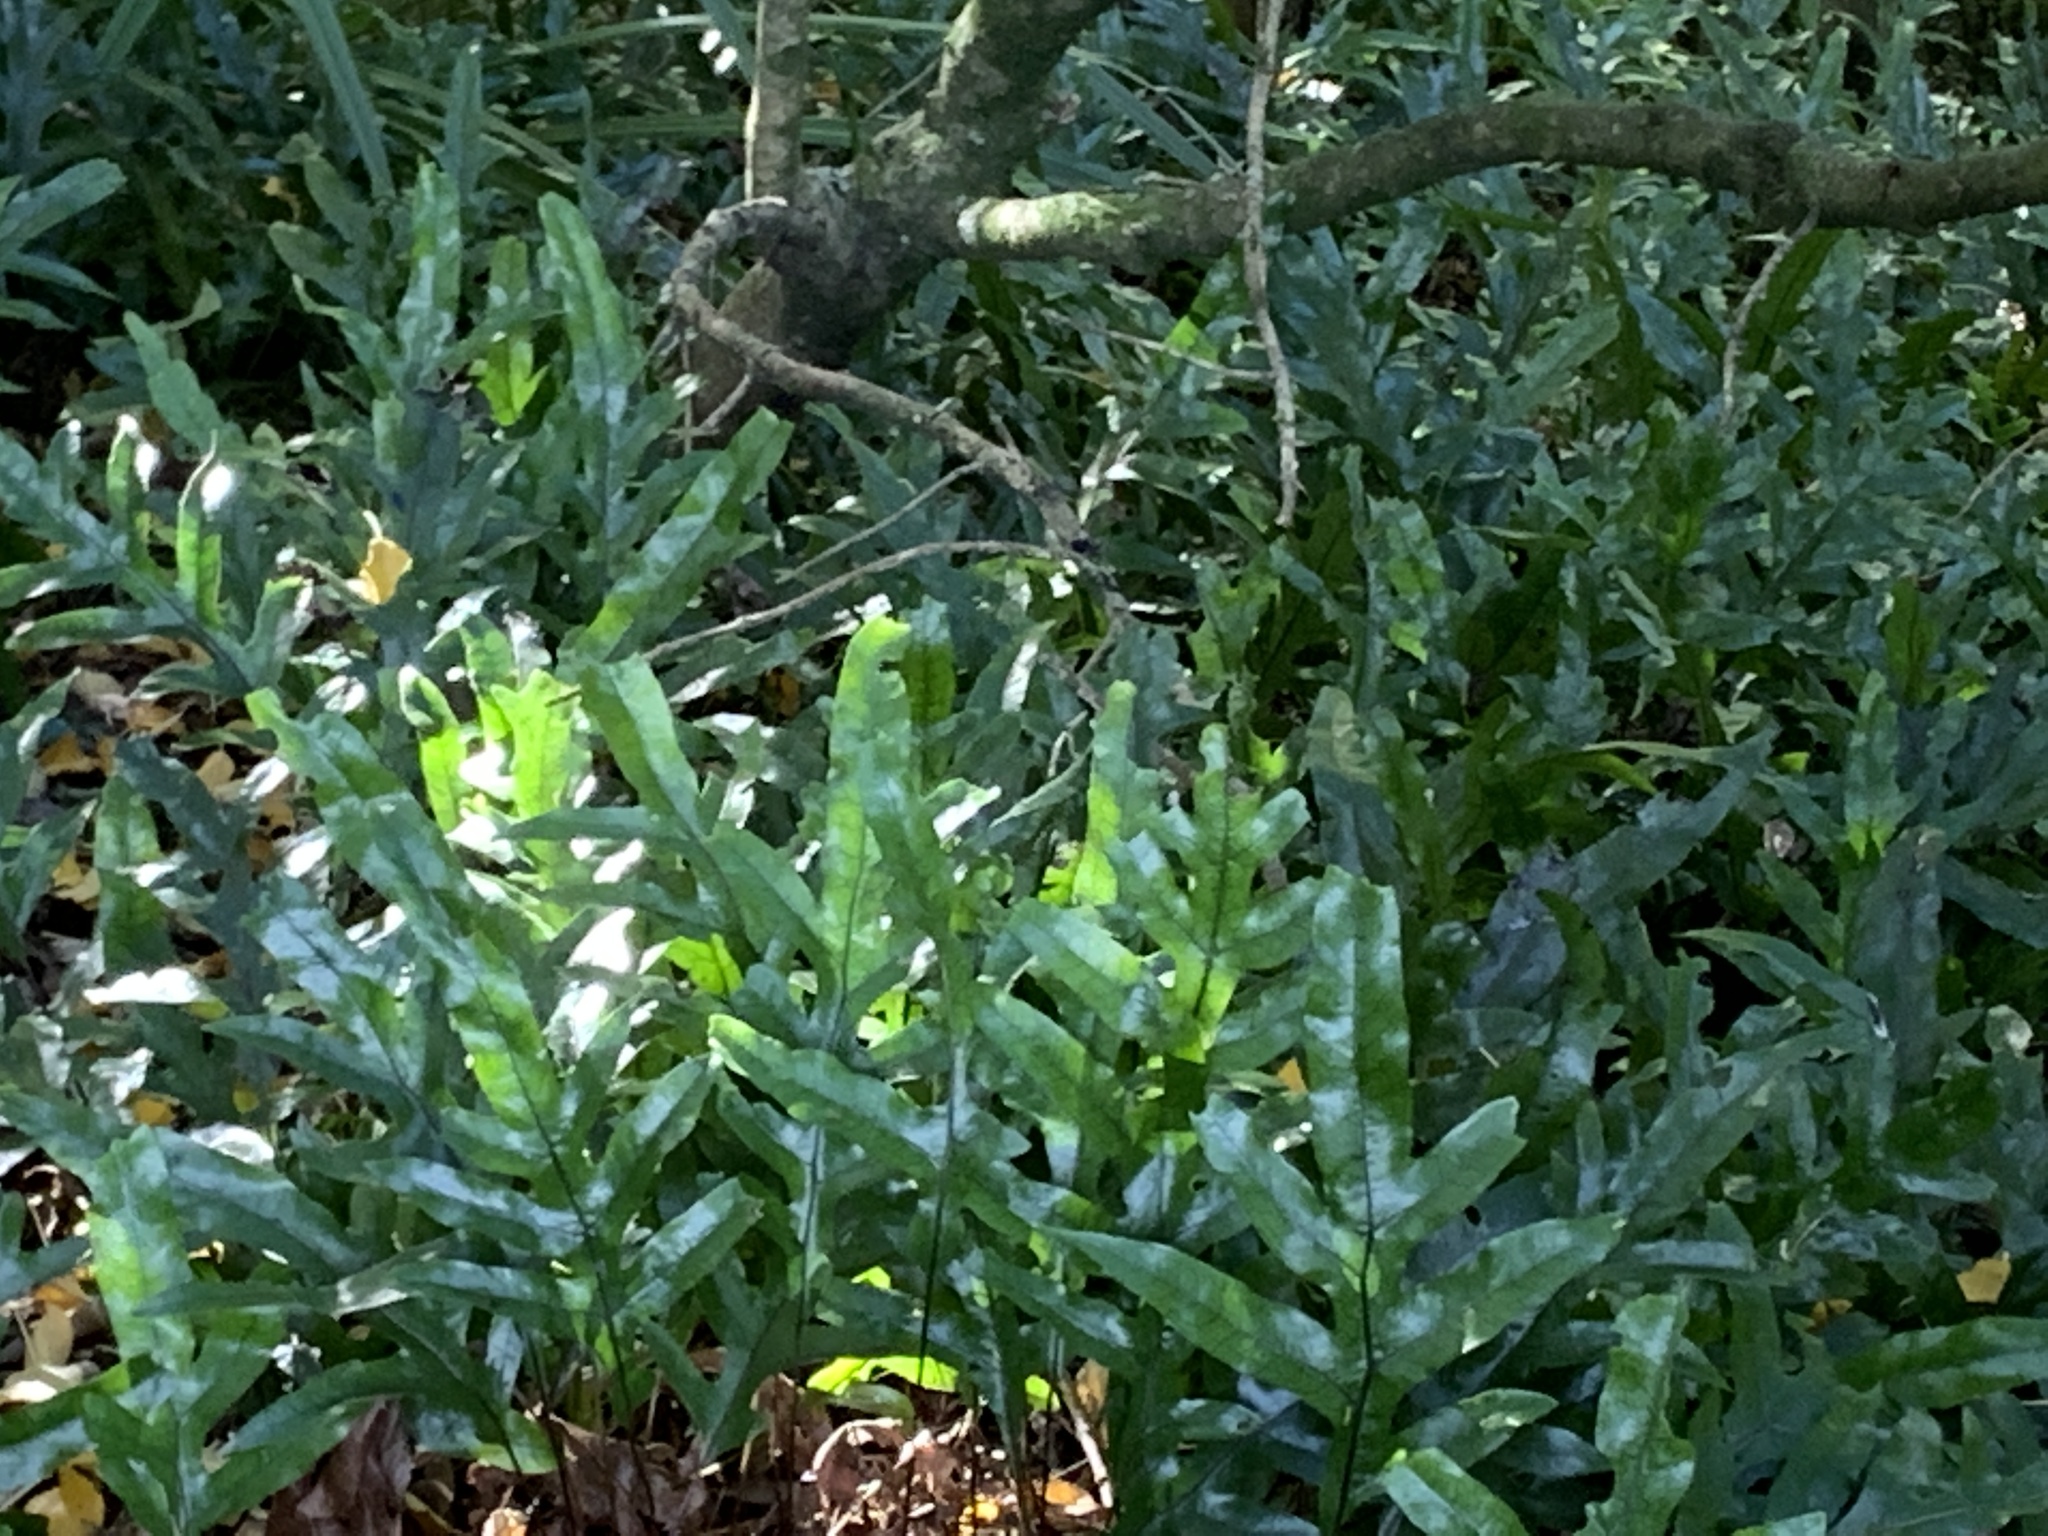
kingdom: Plantae
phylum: Tracheophyta
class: Polypodiopsida
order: Polypodiales
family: Polypodiaceae
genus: Lecanopteris
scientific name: Lecanopteris pustulata
